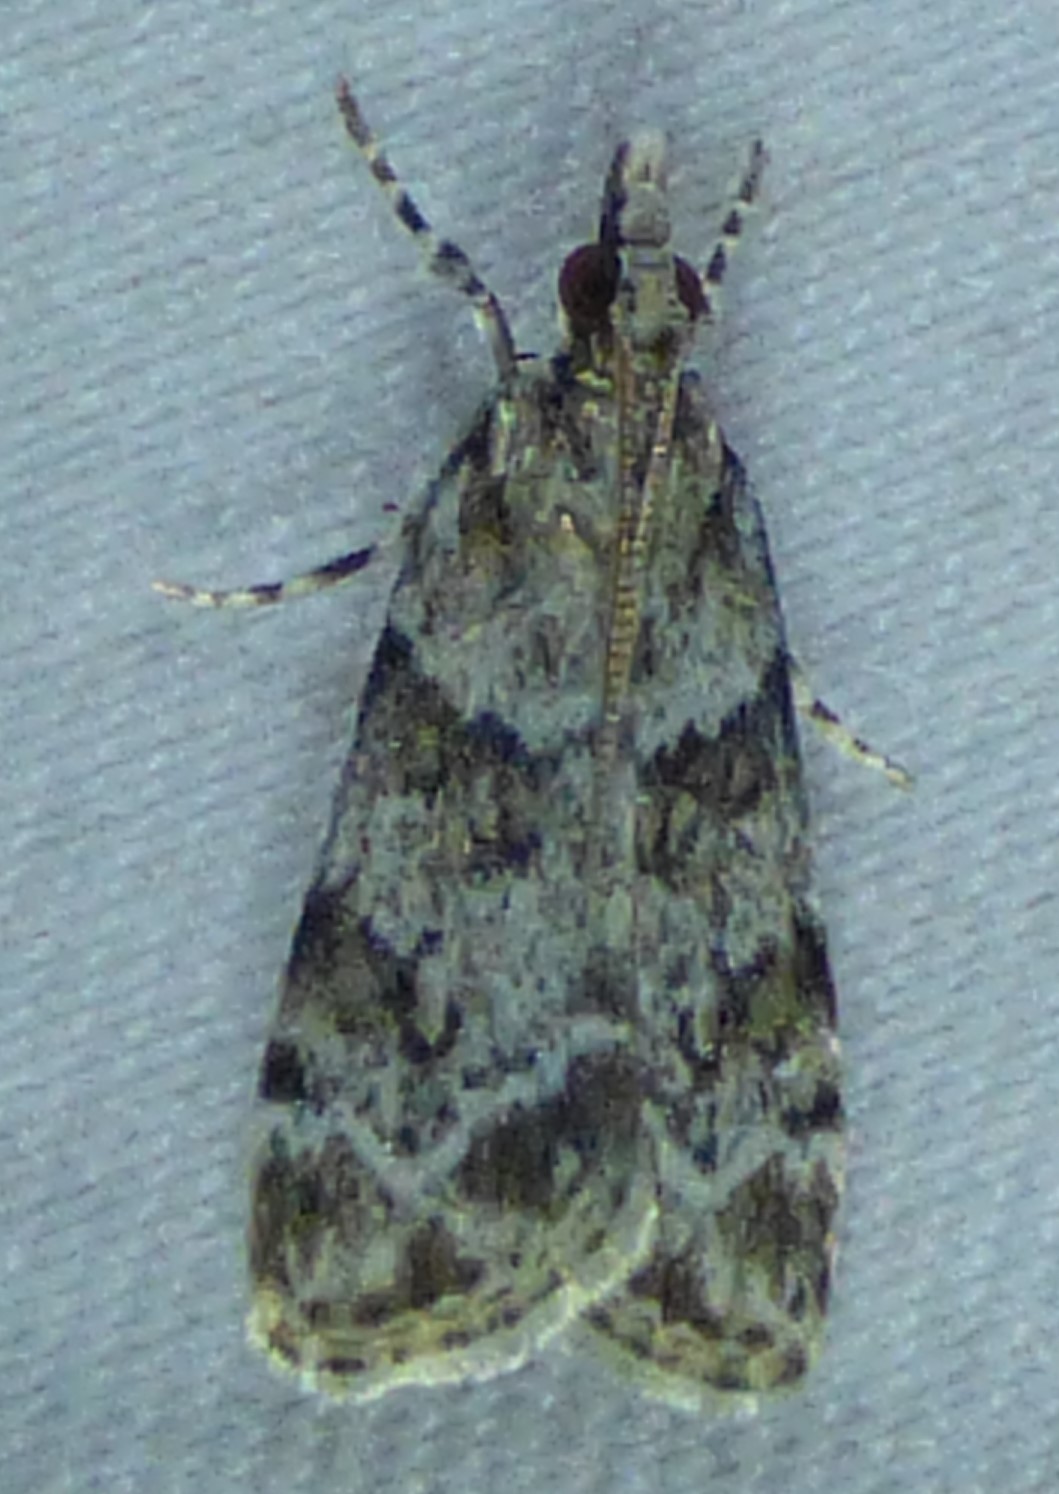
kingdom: Animalia
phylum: Arthropoda
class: Insecta
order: Lepidoptera
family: Crambidae
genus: Scoparia
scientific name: Scoparia biplagialis
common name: Double-striped scoparia moth
